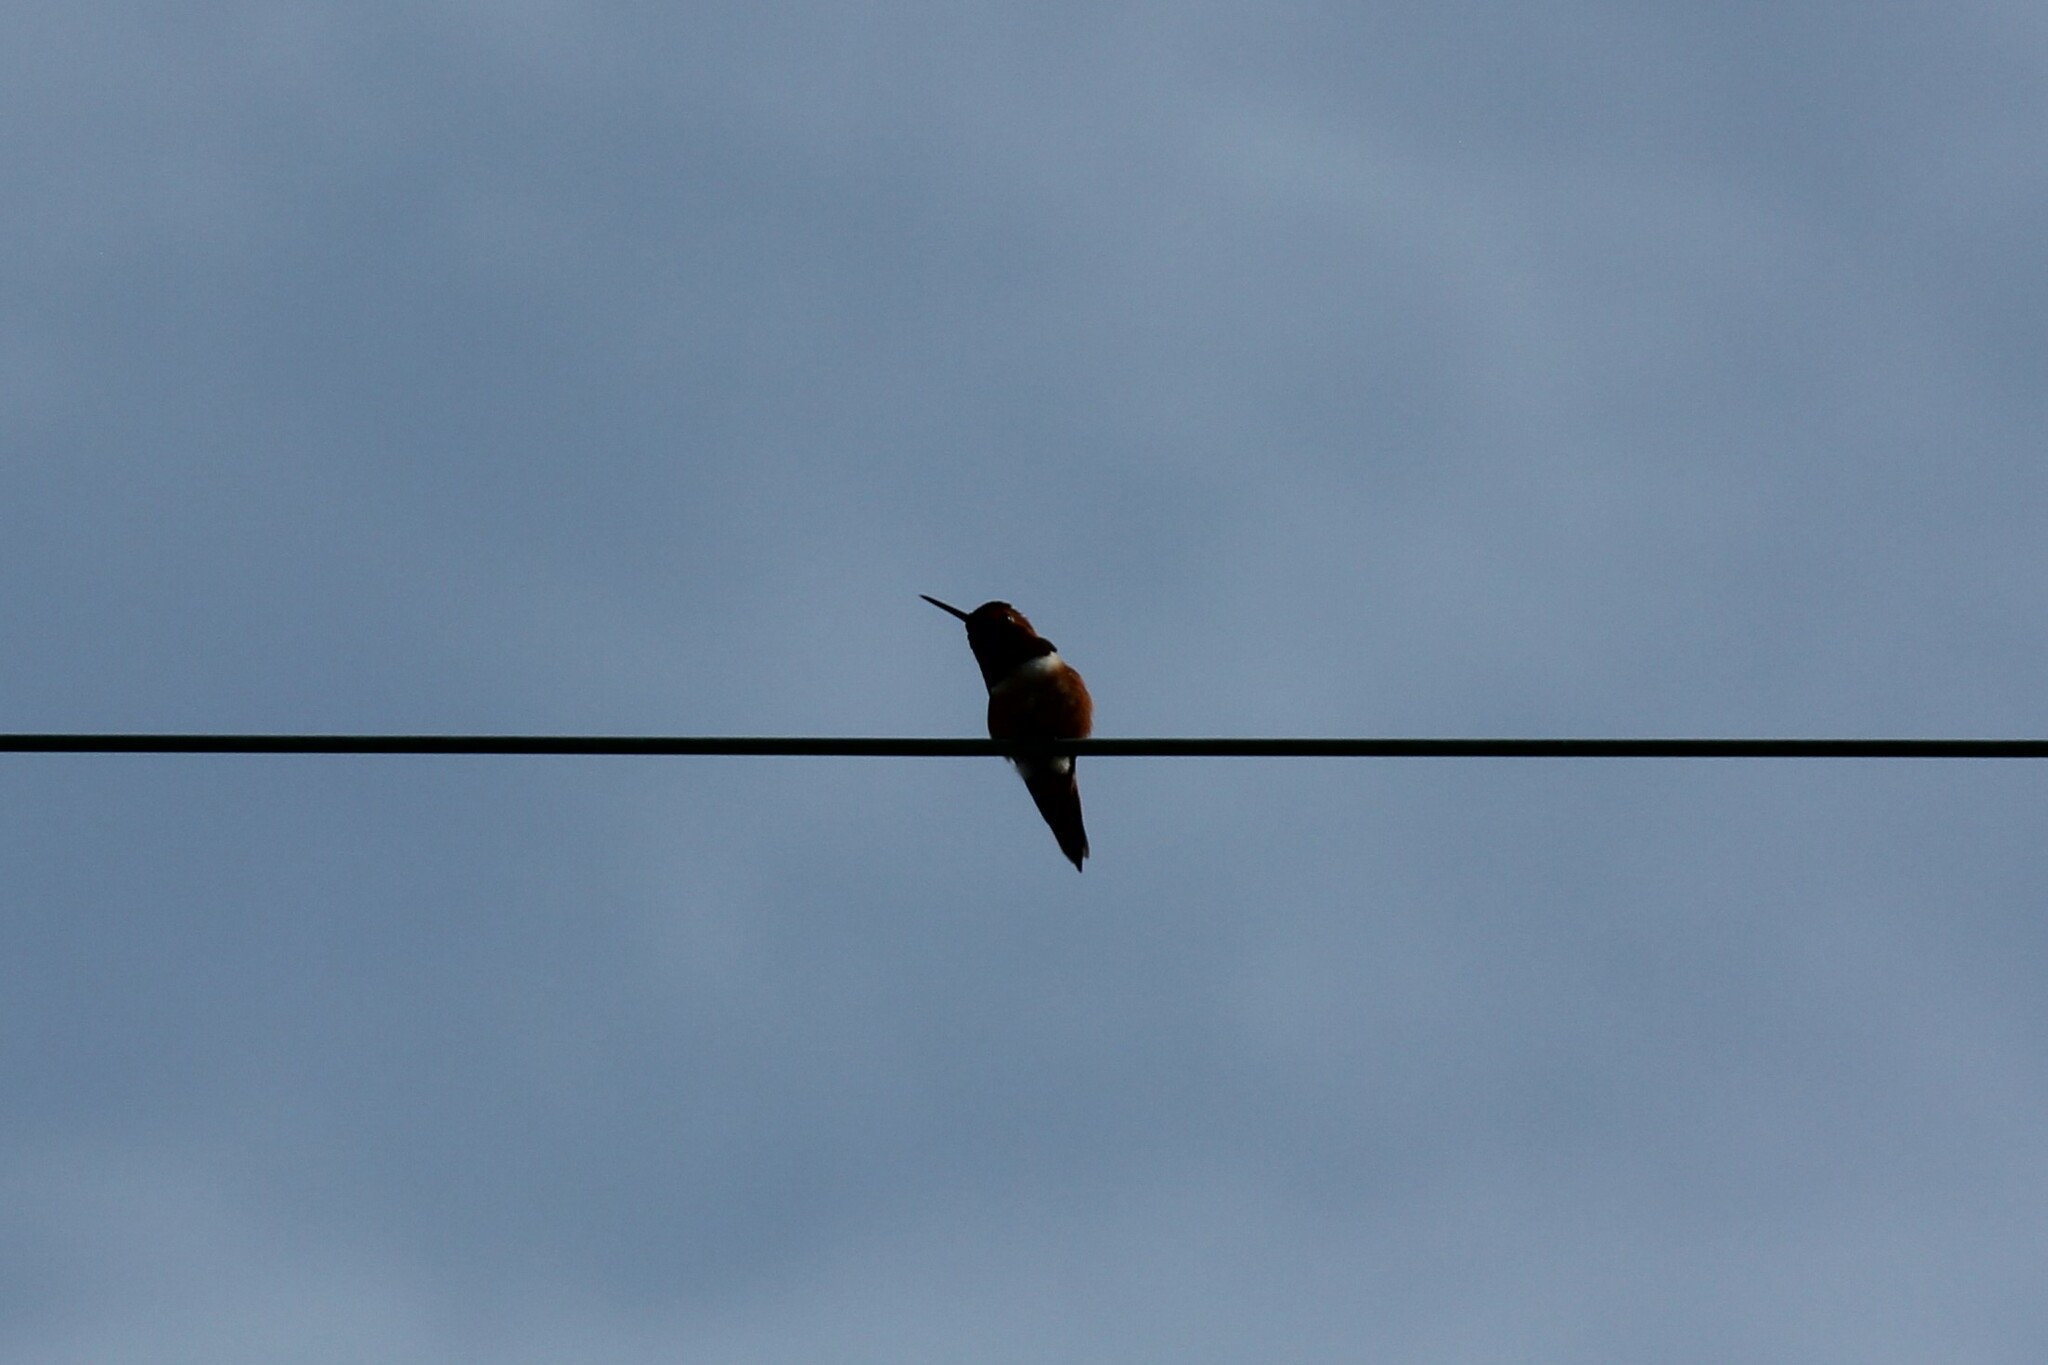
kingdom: Animalia
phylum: Chordata
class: Aves
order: Apodiformes
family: Trochilidae
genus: Selasphorus
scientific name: Selasphorus sasin
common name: Allen's hummingbird
